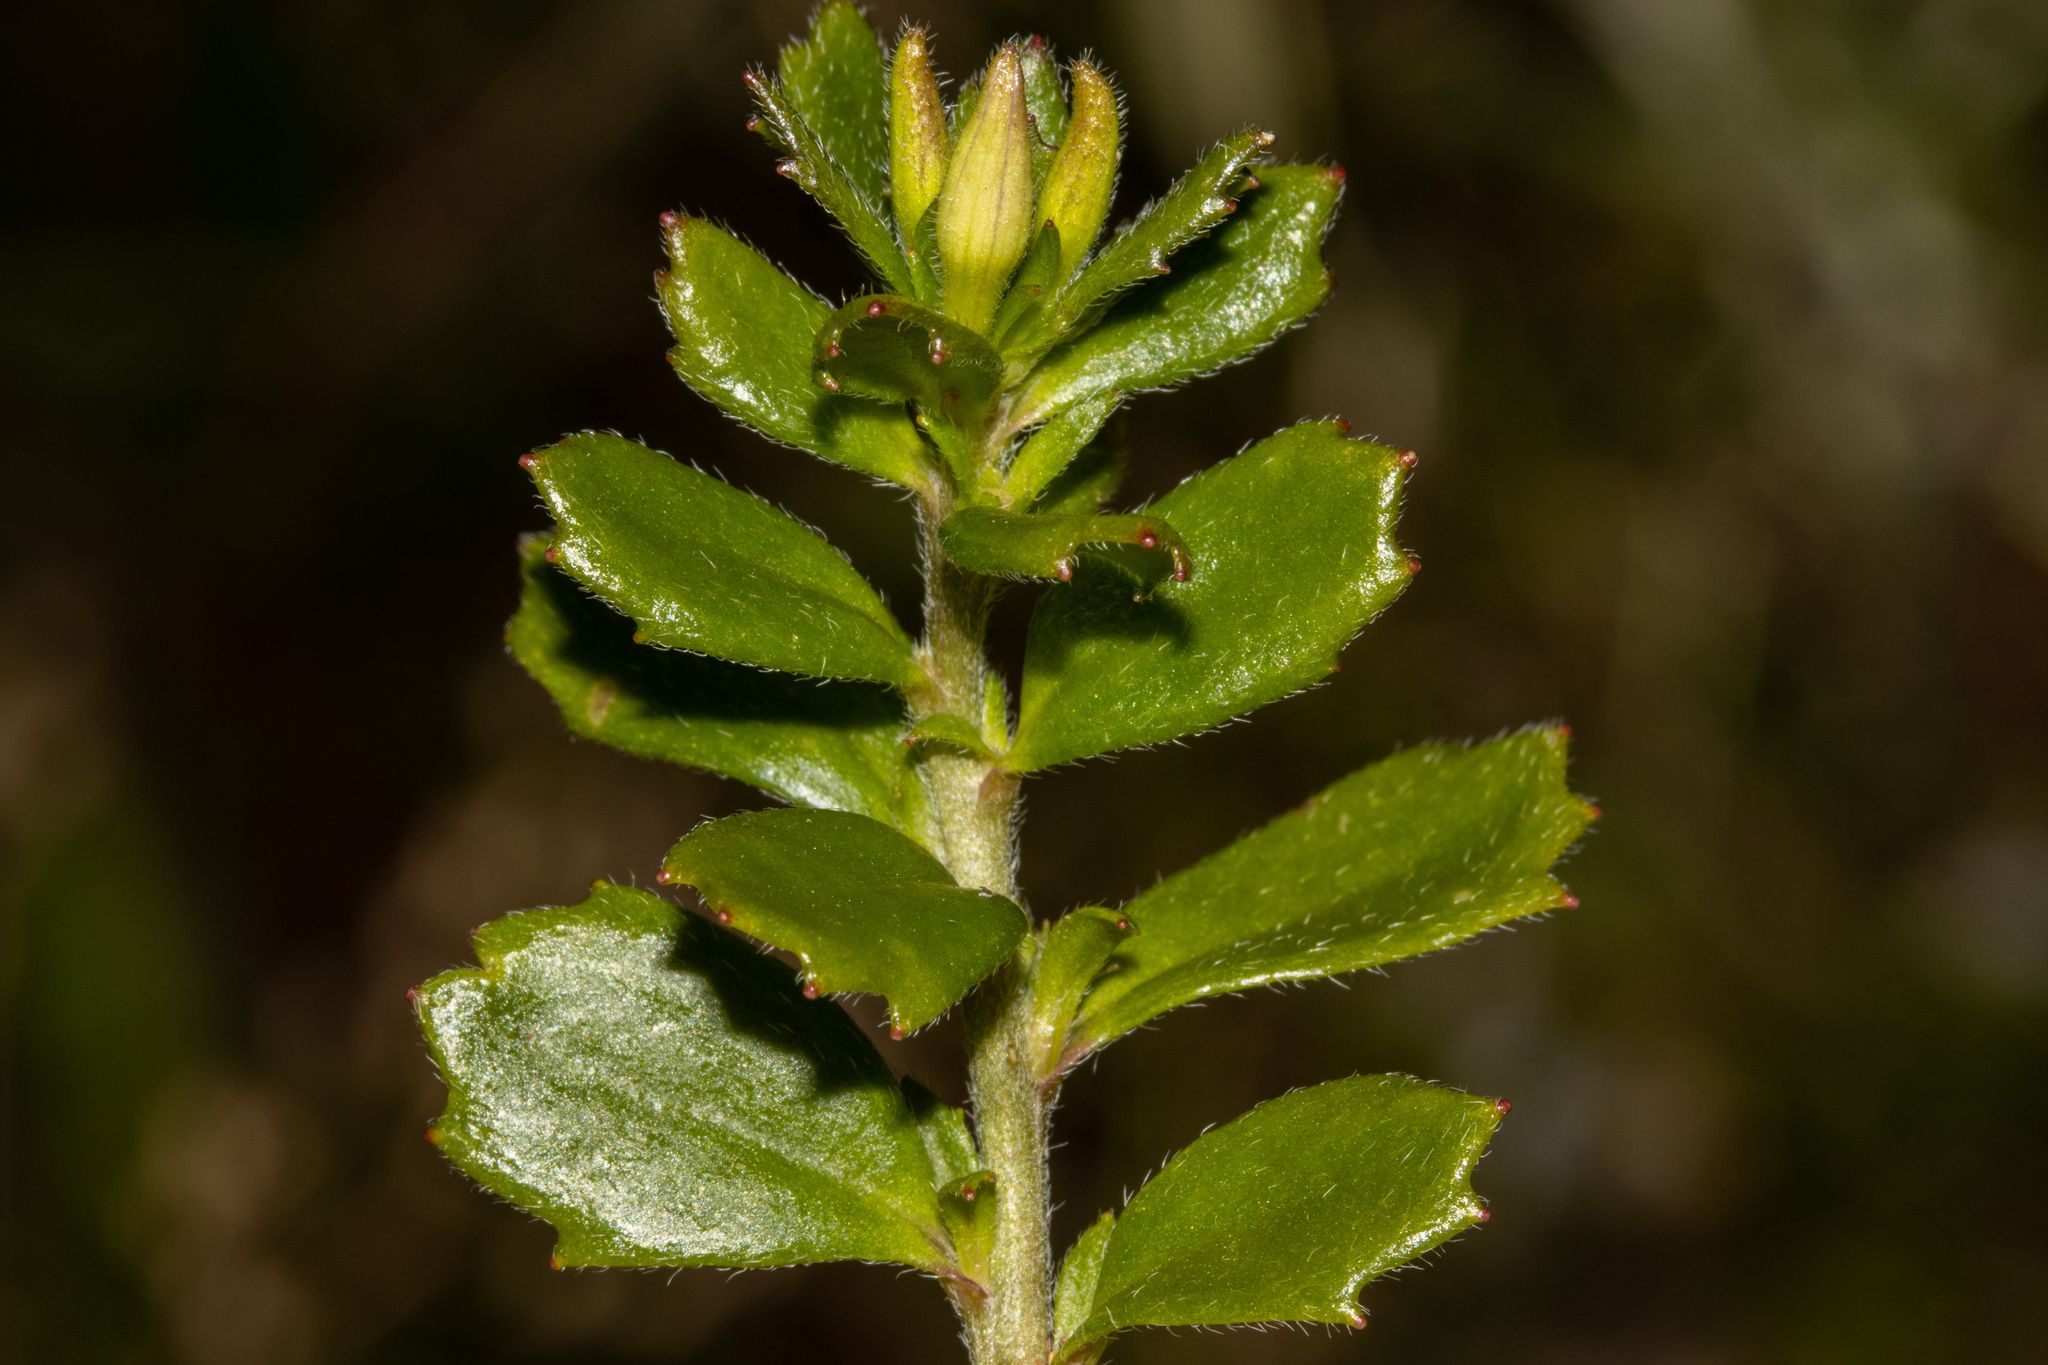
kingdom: Plantae
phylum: Tracheophyta
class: Magnoliopsida
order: Asterales
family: Goodeniaceae
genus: Scaevola
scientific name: Scaevola albida
